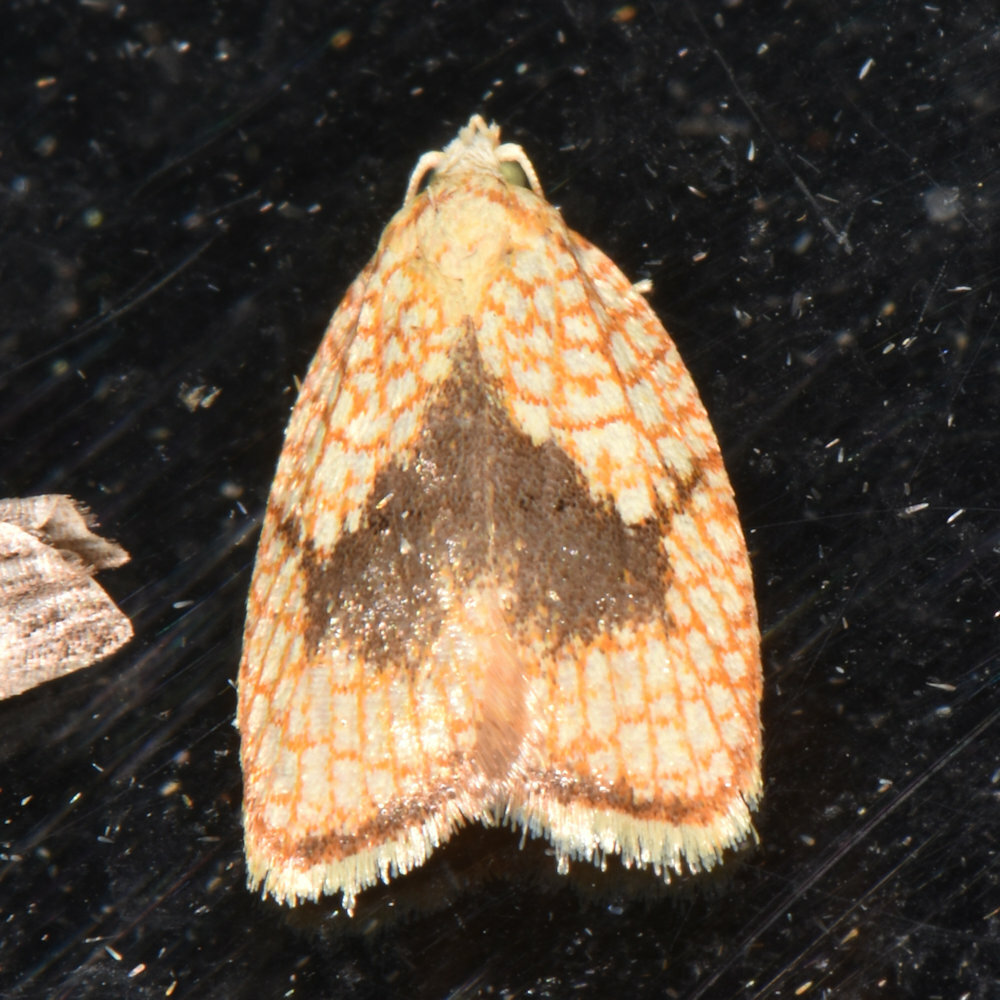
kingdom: Animalia
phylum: Arthropoda
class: Insecta
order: Lepidoptera
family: Tortricidae
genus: Acleris
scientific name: Acleris forsskaleana
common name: Maple button
